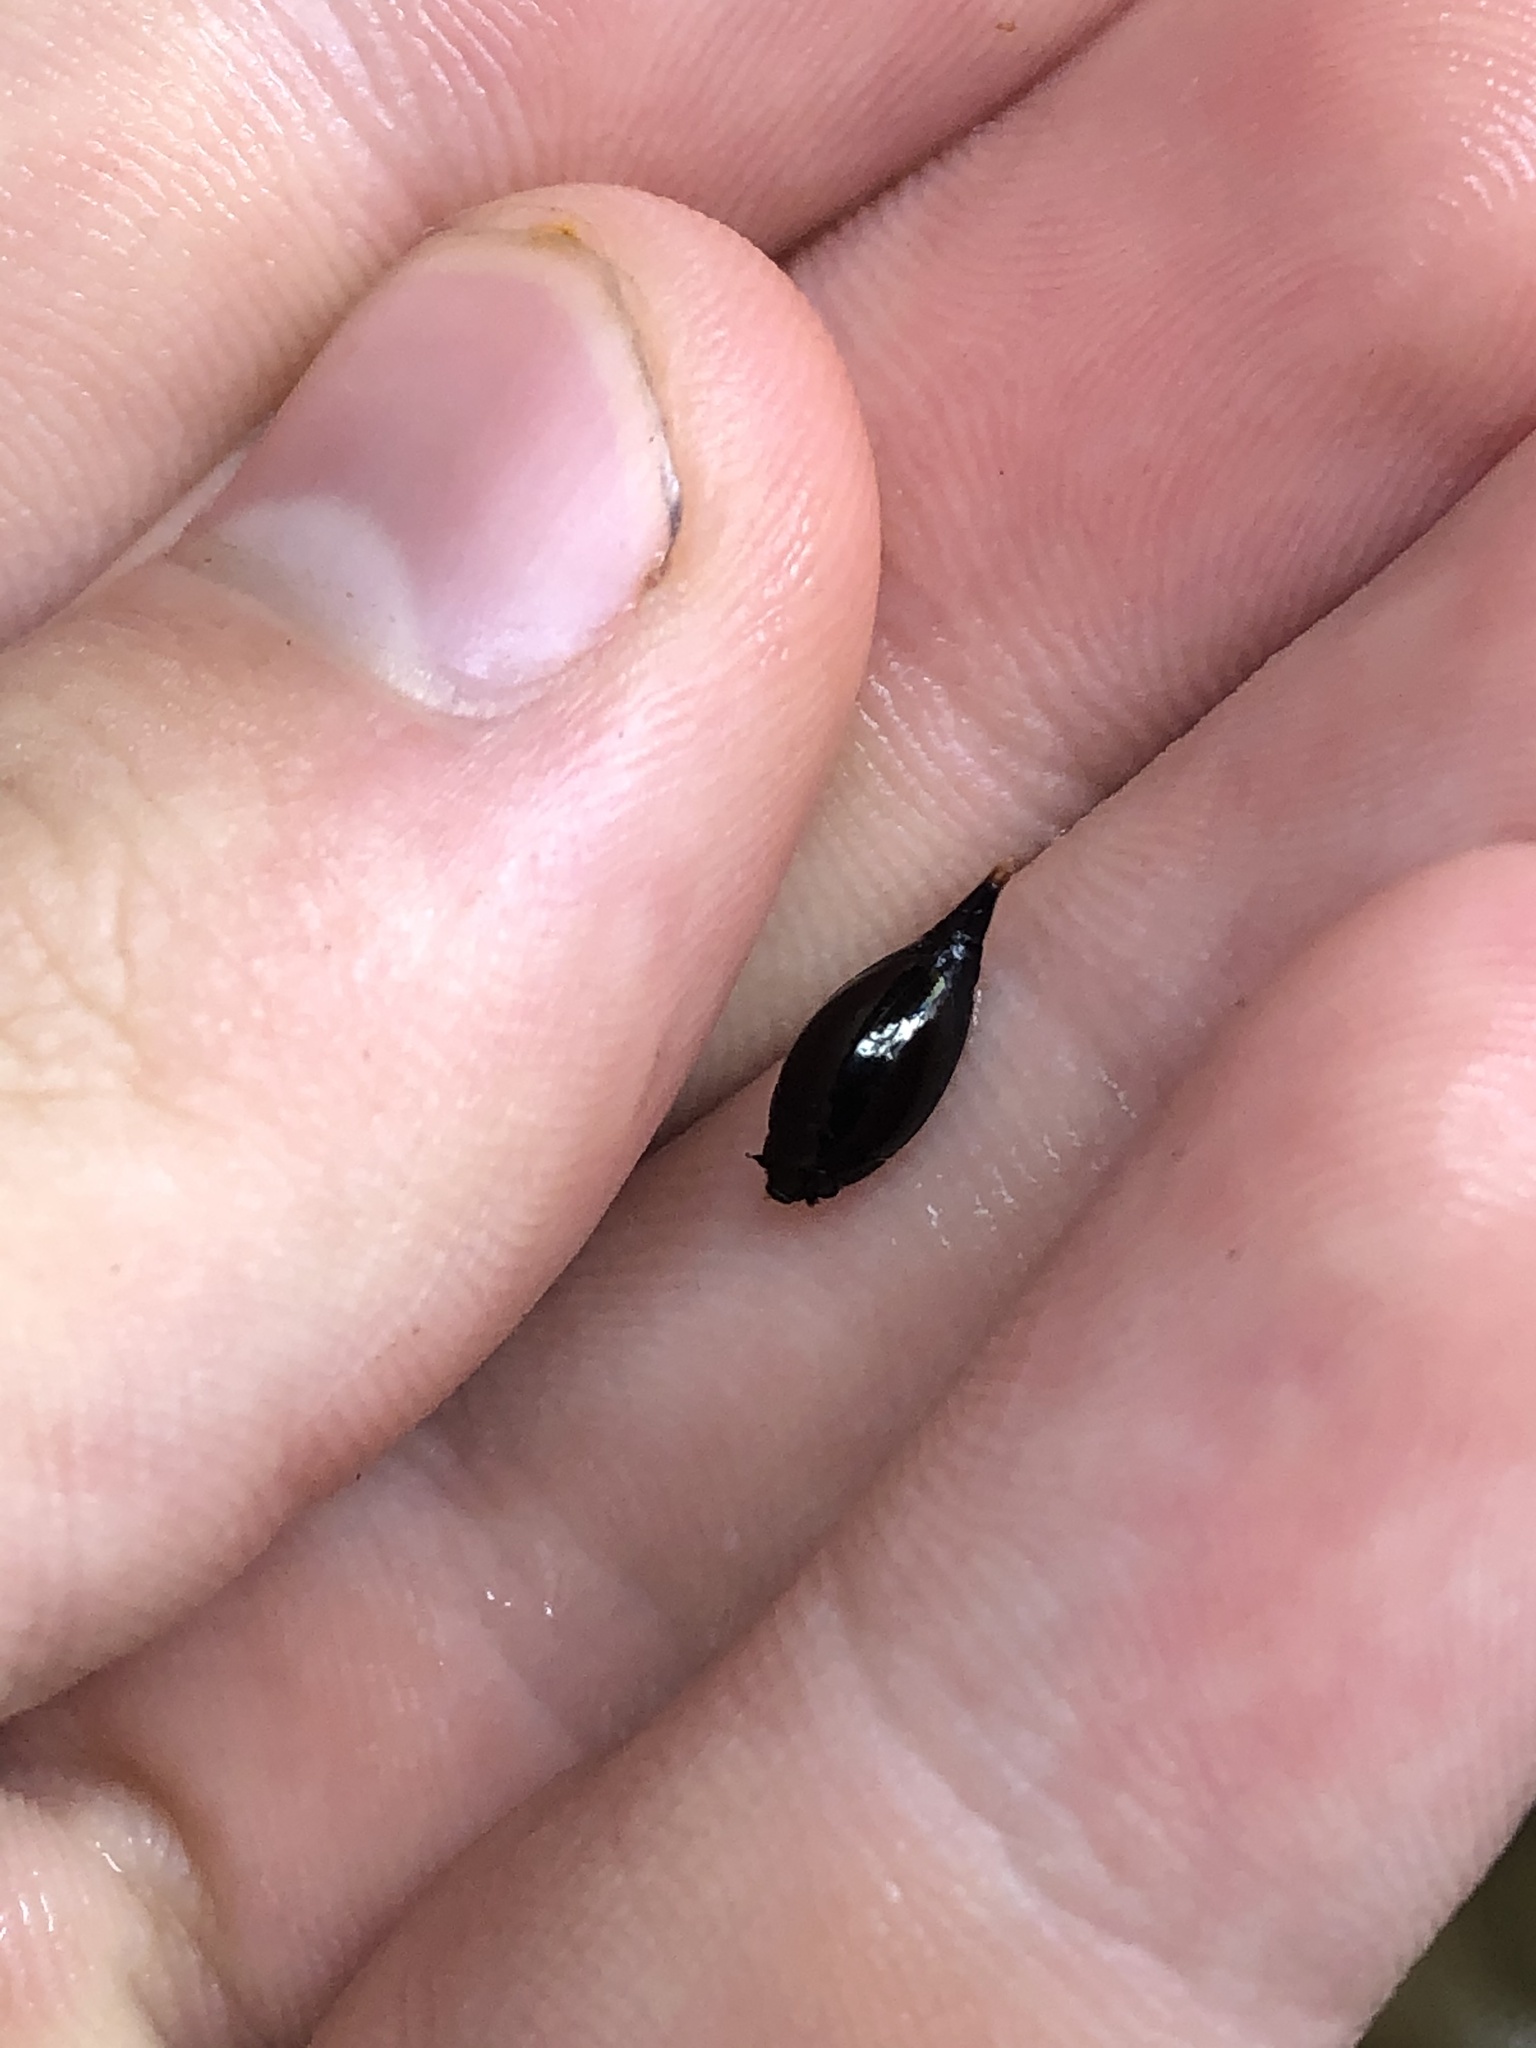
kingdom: Animalia
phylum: Arthropoda
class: Insecta
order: Coleoptera
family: Gyrinidae
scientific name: Gyrinidae
